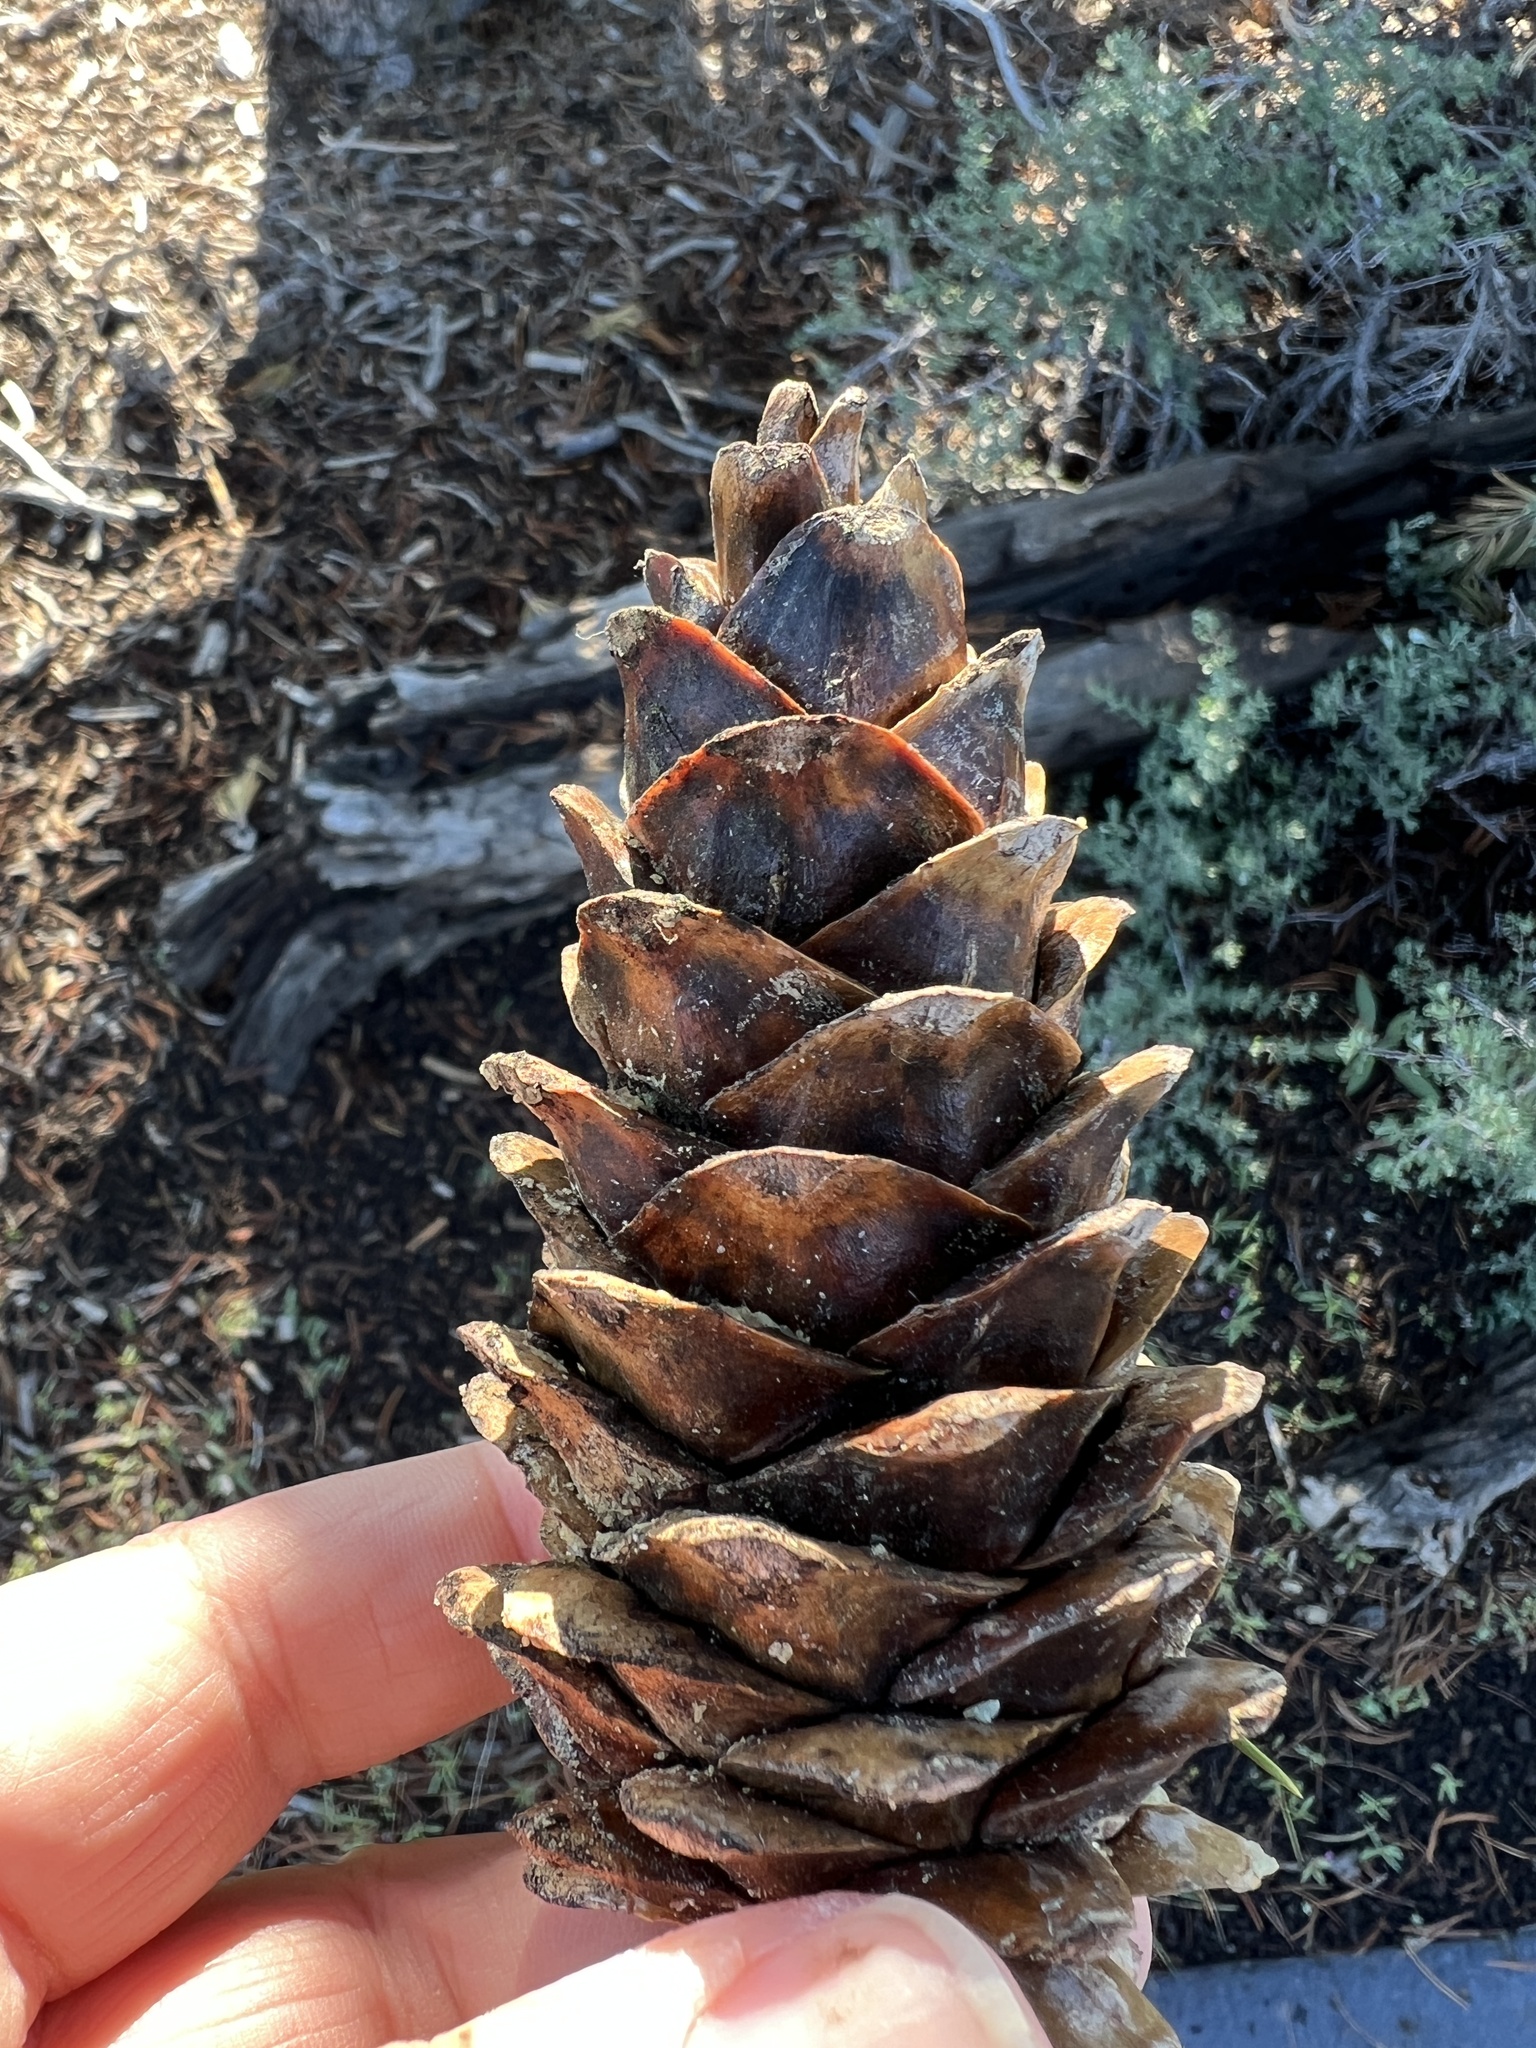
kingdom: Plantae
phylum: Tracheophyta
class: Pinopsida
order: Pinales
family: Pinaceae
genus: Pinus
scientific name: Pinus flexilis
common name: Limber pine
